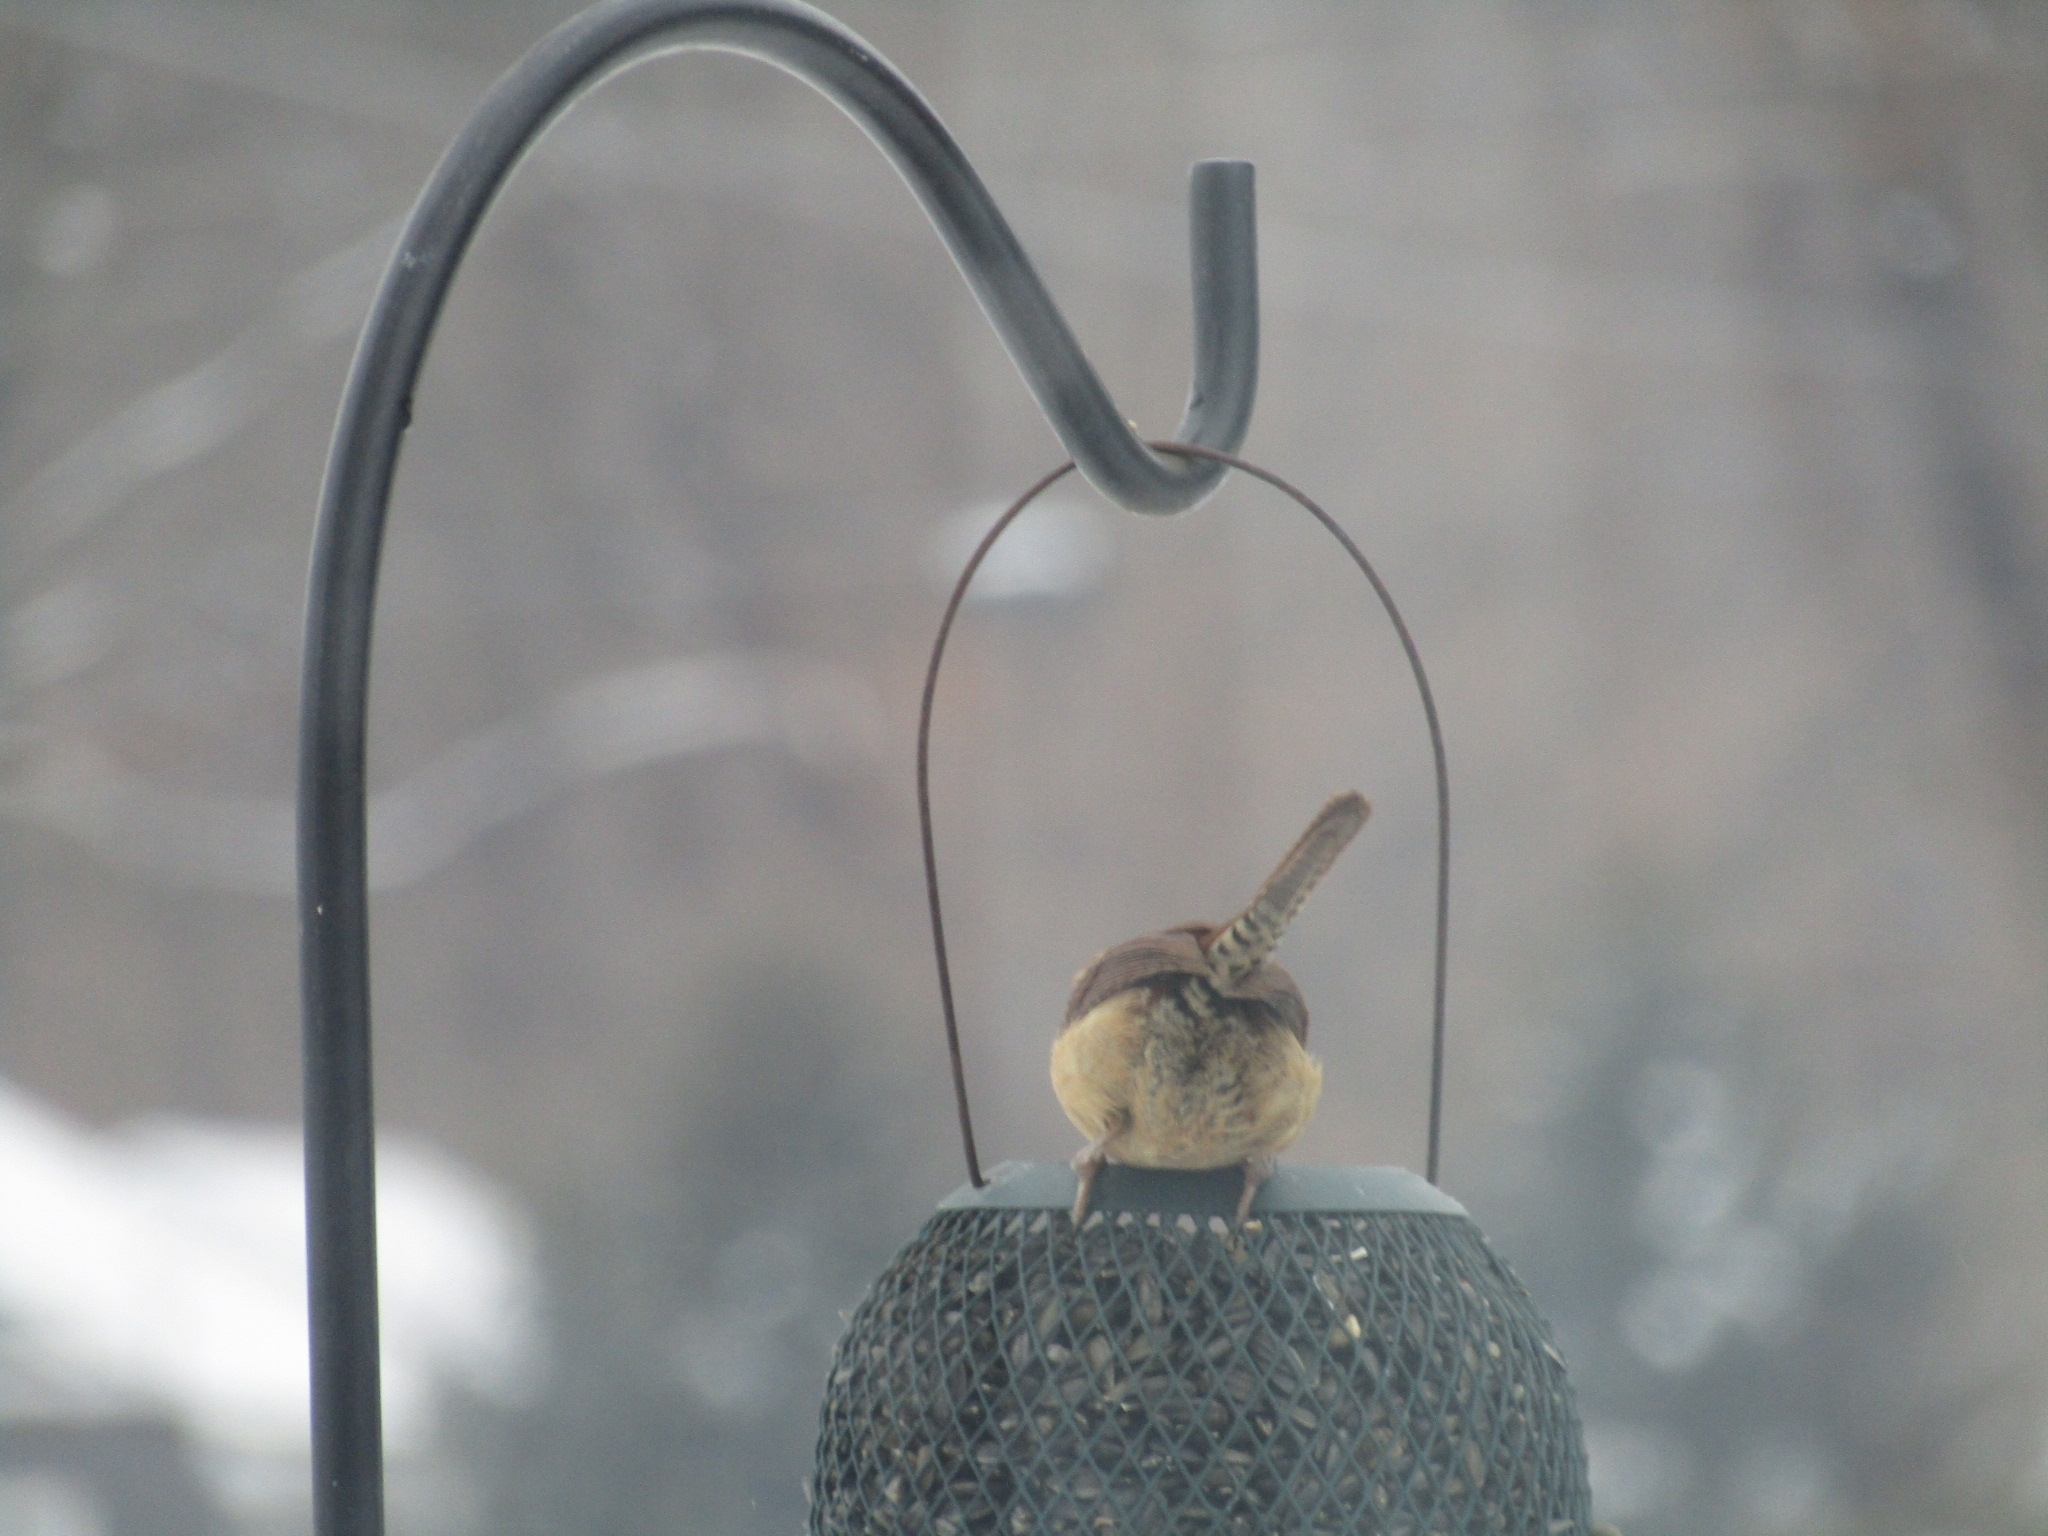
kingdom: Animalia
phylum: Chordata
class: Aves
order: Passeriformes
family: Troglodytidae
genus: Thryothorus
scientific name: Thryothorus ludovicianus
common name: Carolina wren
